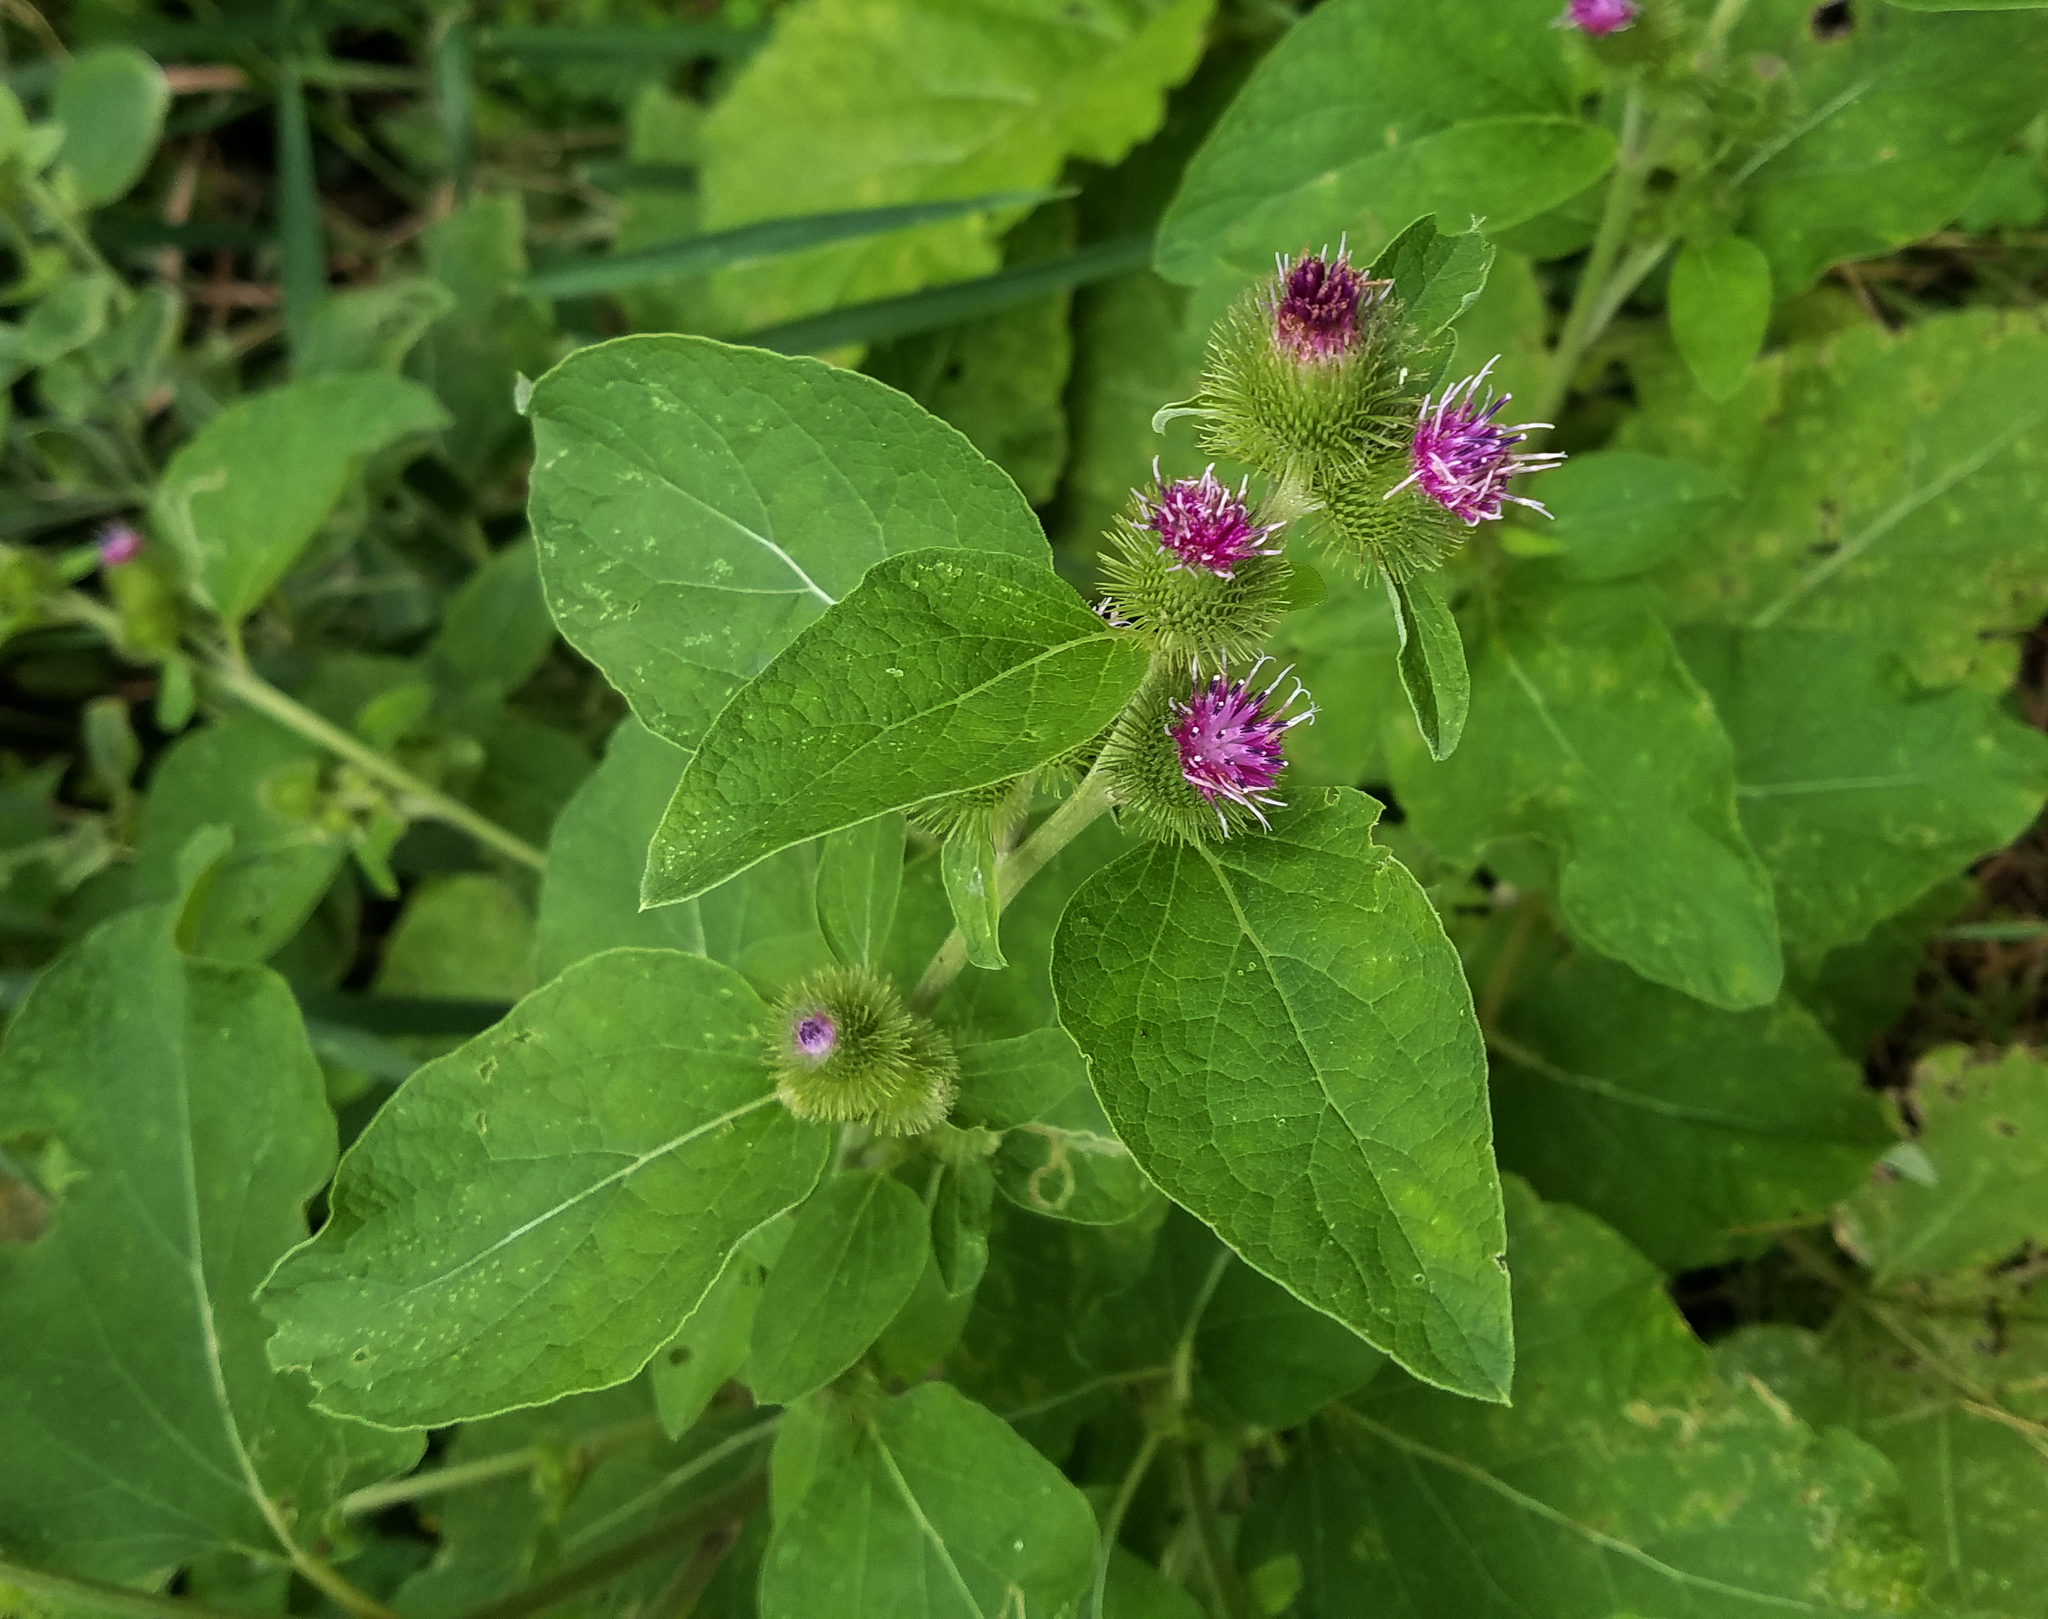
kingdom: Plantae
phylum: Tracheophyta
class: Magnoliopsida
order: Asterales
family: Asteraceae
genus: Arctium
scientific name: Arctium minus
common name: Lesser burdock
